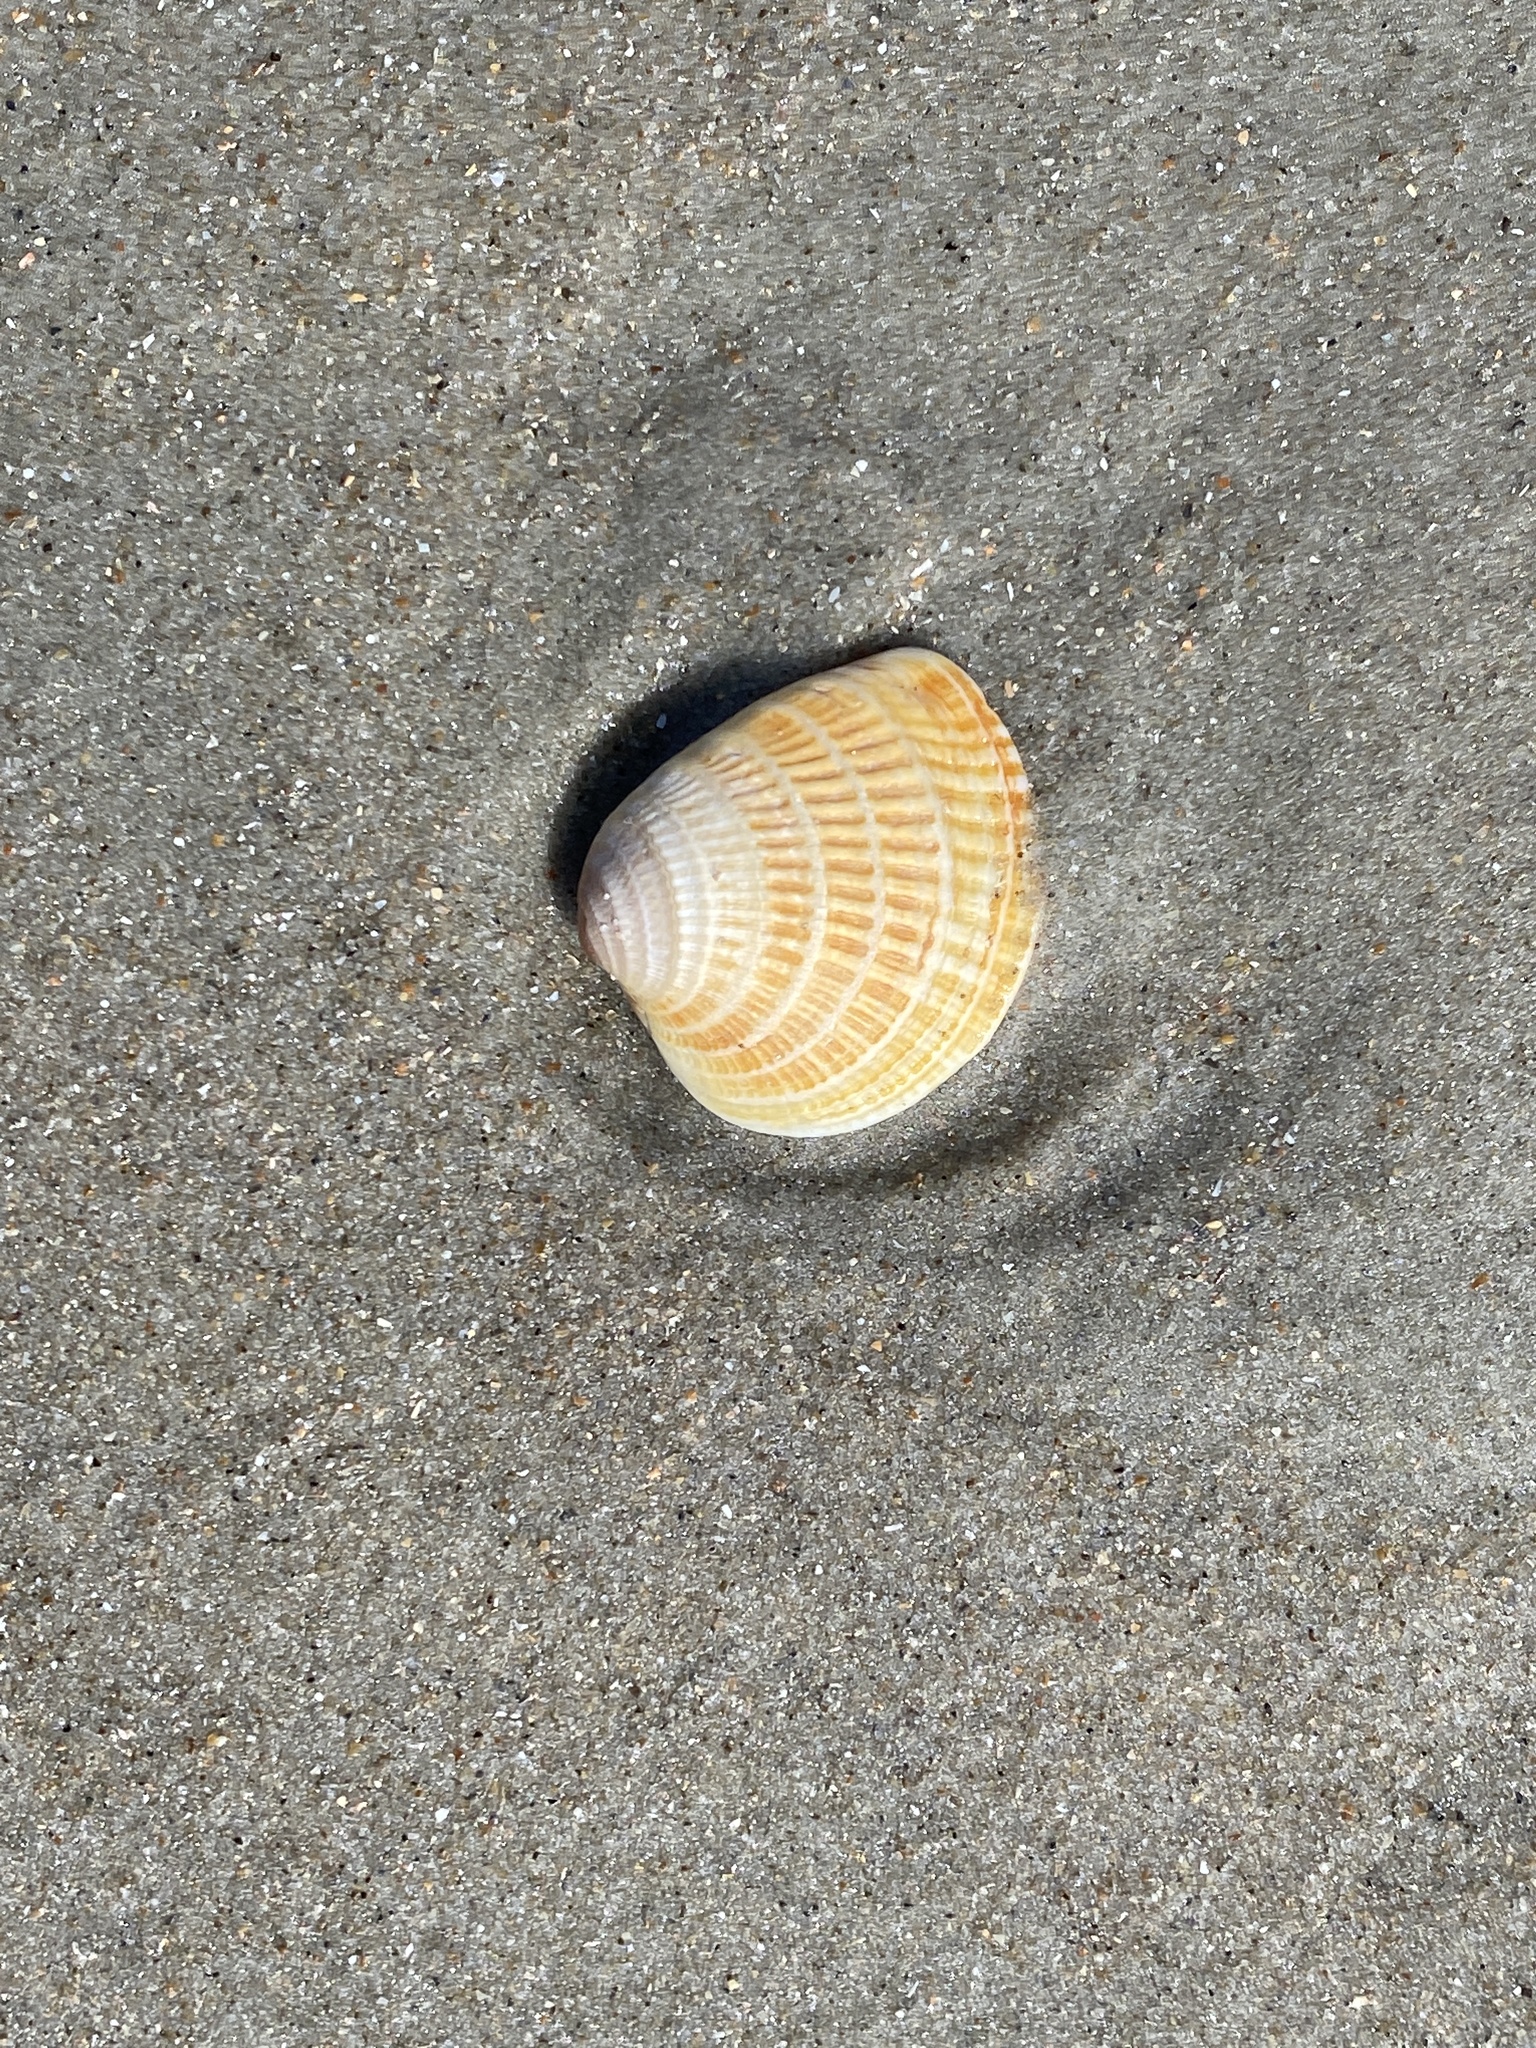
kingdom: Animalia
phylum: Mollusca
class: Bivalvia
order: Venerida
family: Veneridae
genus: Chione
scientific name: Chione elevata
